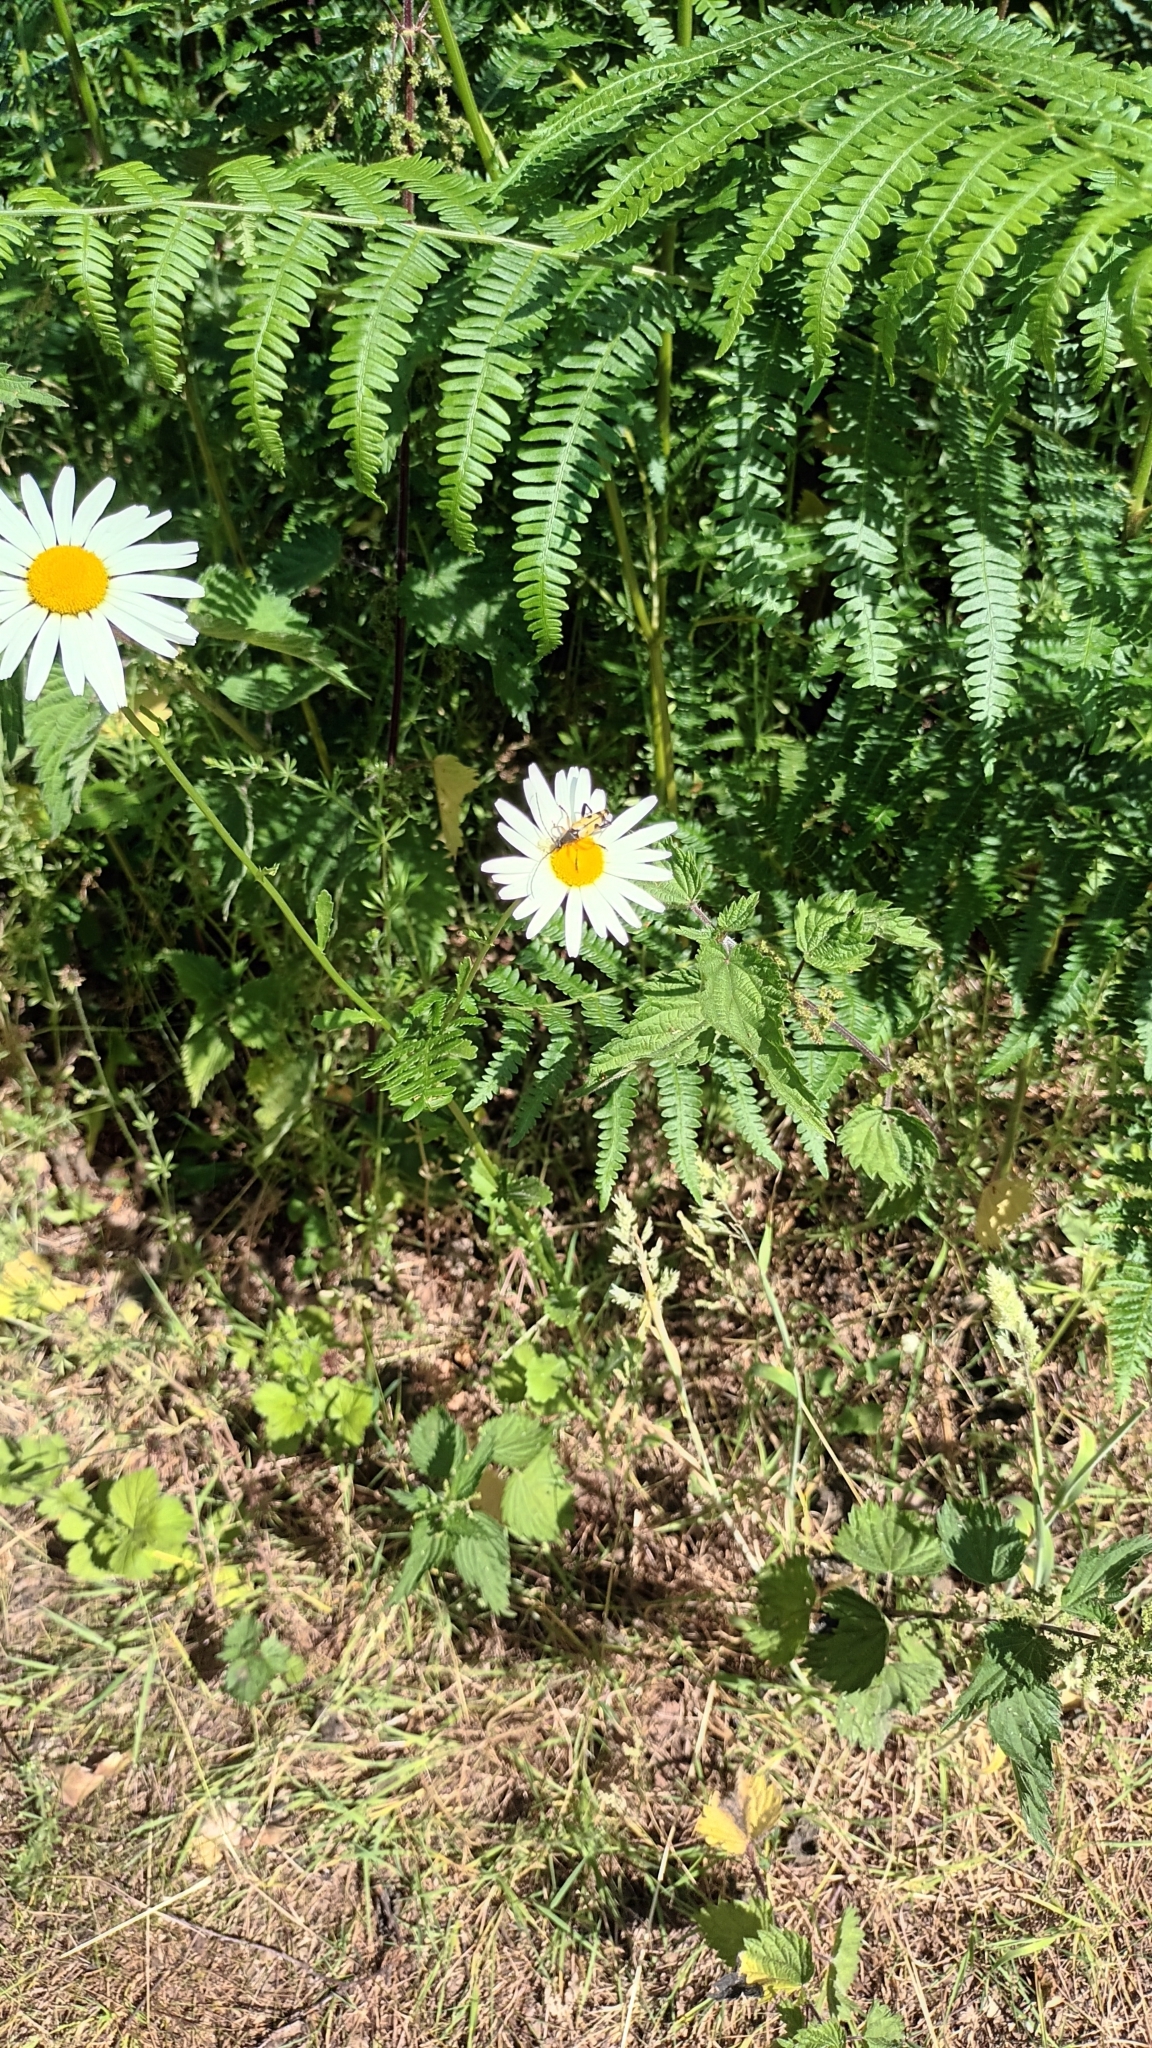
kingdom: Animalia
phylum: Arthropoda
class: Insecta
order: Coleoptera
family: Cerambycidae
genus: Rutpela
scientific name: Rutpela maculata
